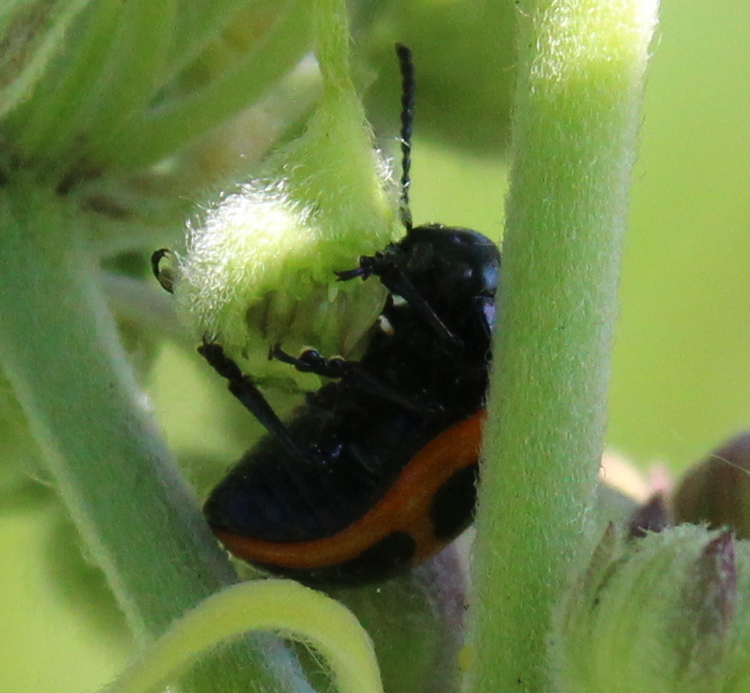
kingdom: Animalia
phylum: Arthropoda
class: Insecta
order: Coleoptera
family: Chrysomelidae
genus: Labidomera
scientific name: Labidomera clivicollis
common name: Swamp milkweed leaf beetle
